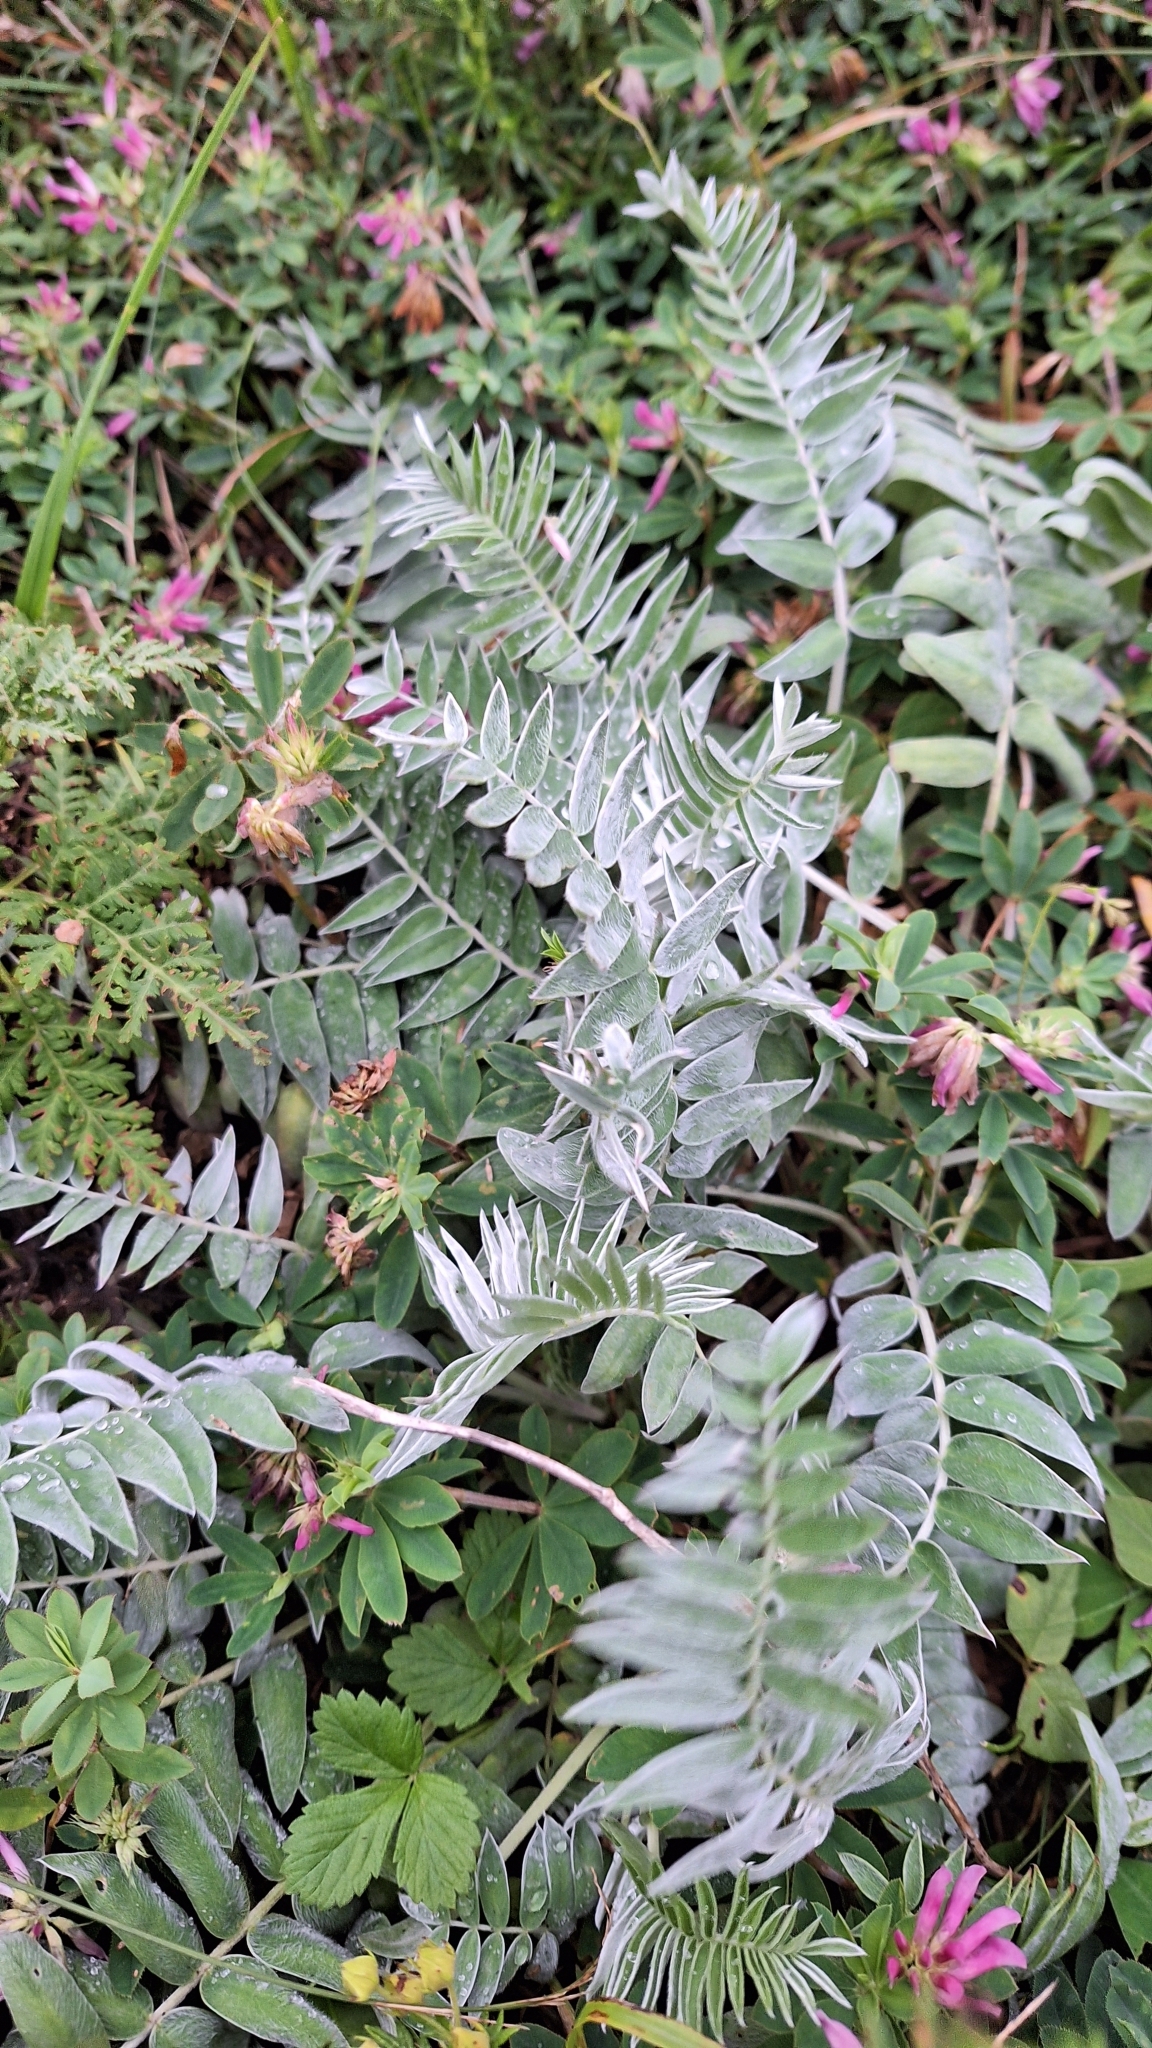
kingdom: Plantae
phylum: Tracheophyta
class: Magnoliopsida
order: Fabales
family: Fabaceae
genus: Oxytropis
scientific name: Oxytropis ruthenica
